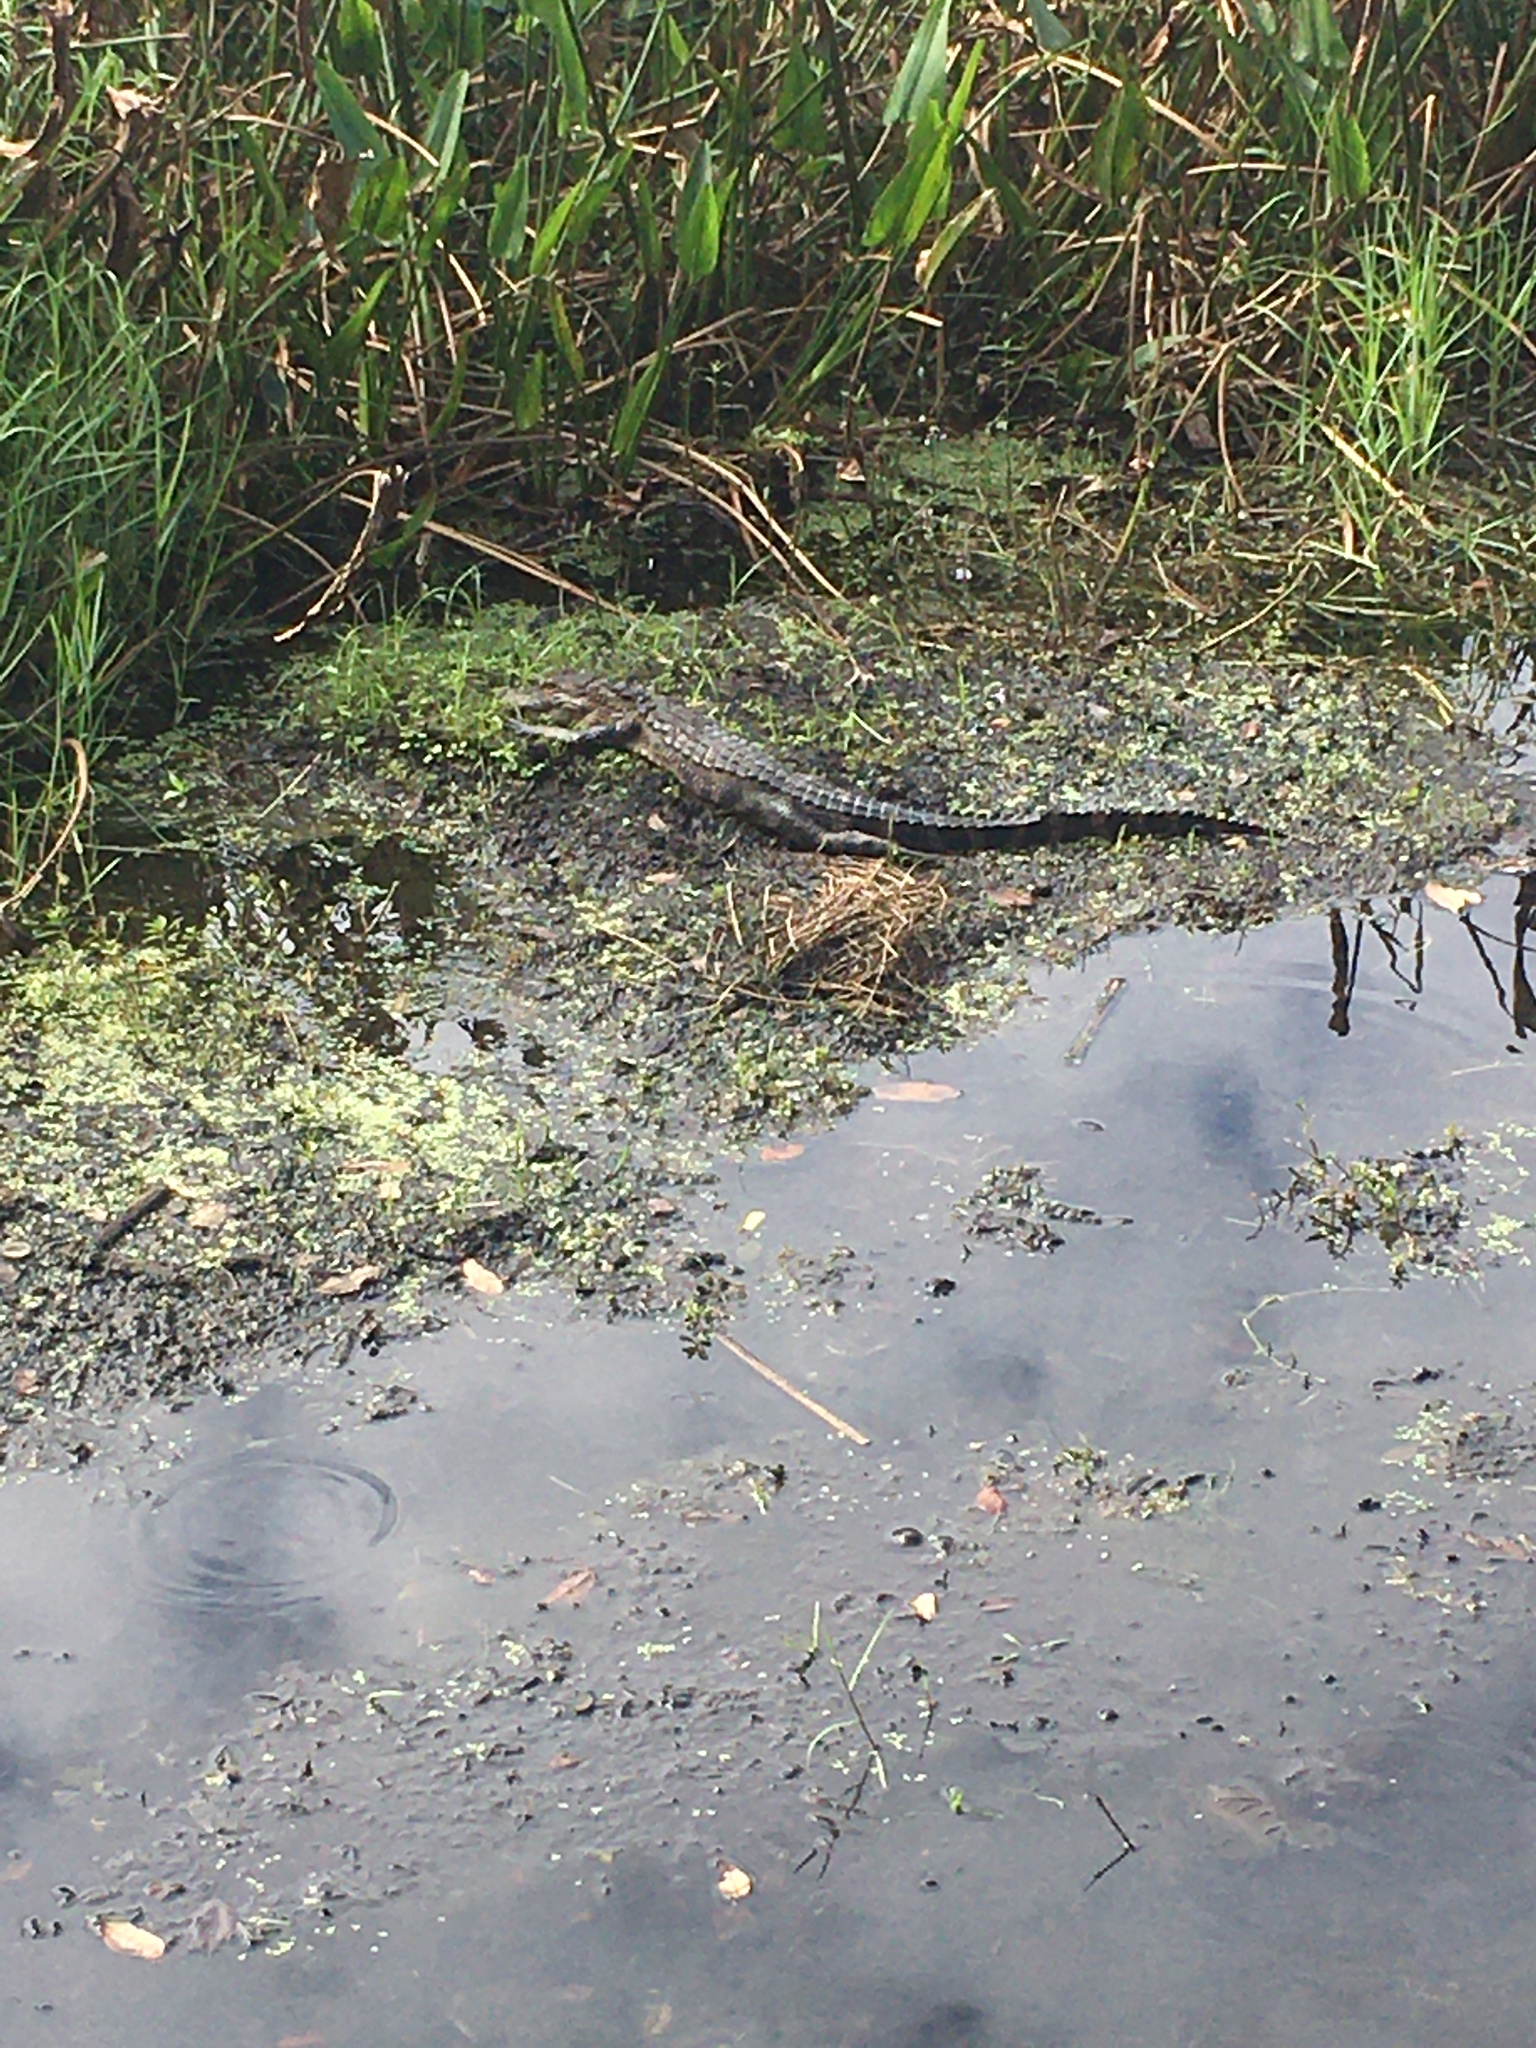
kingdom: Animalia
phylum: Chordata
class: Crocodylia
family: Alligatoridae
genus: Alligator
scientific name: Alligator mississippiensis
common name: American alligator
